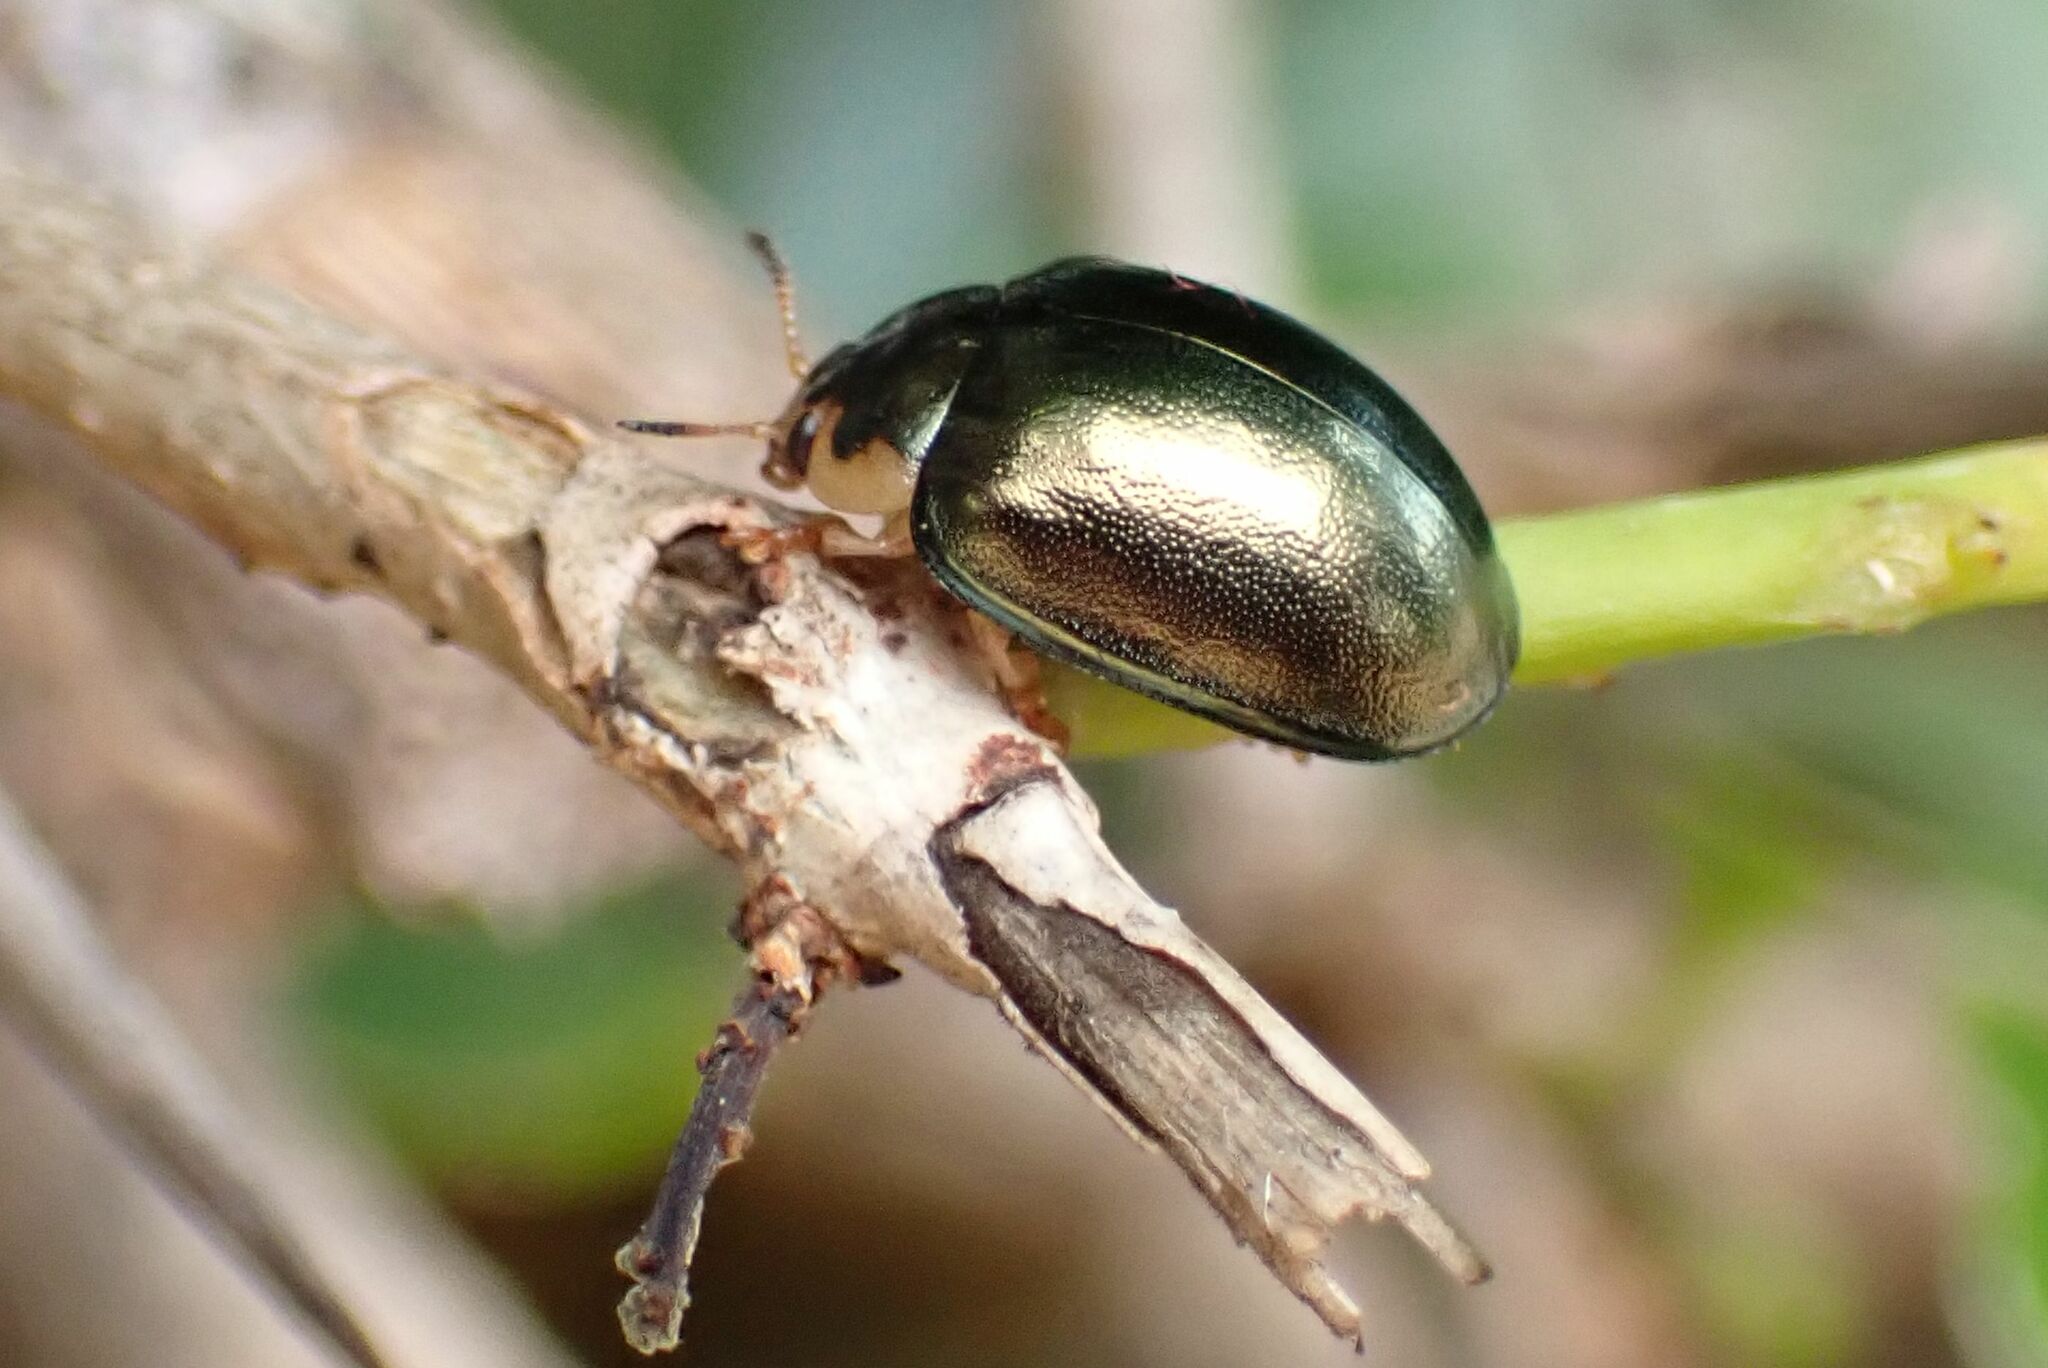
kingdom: Animalia
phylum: Arthropoda
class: Insecta
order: Coleoptera
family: Chrysomelidae
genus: Plagiosterna
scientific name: Plagiosterna
